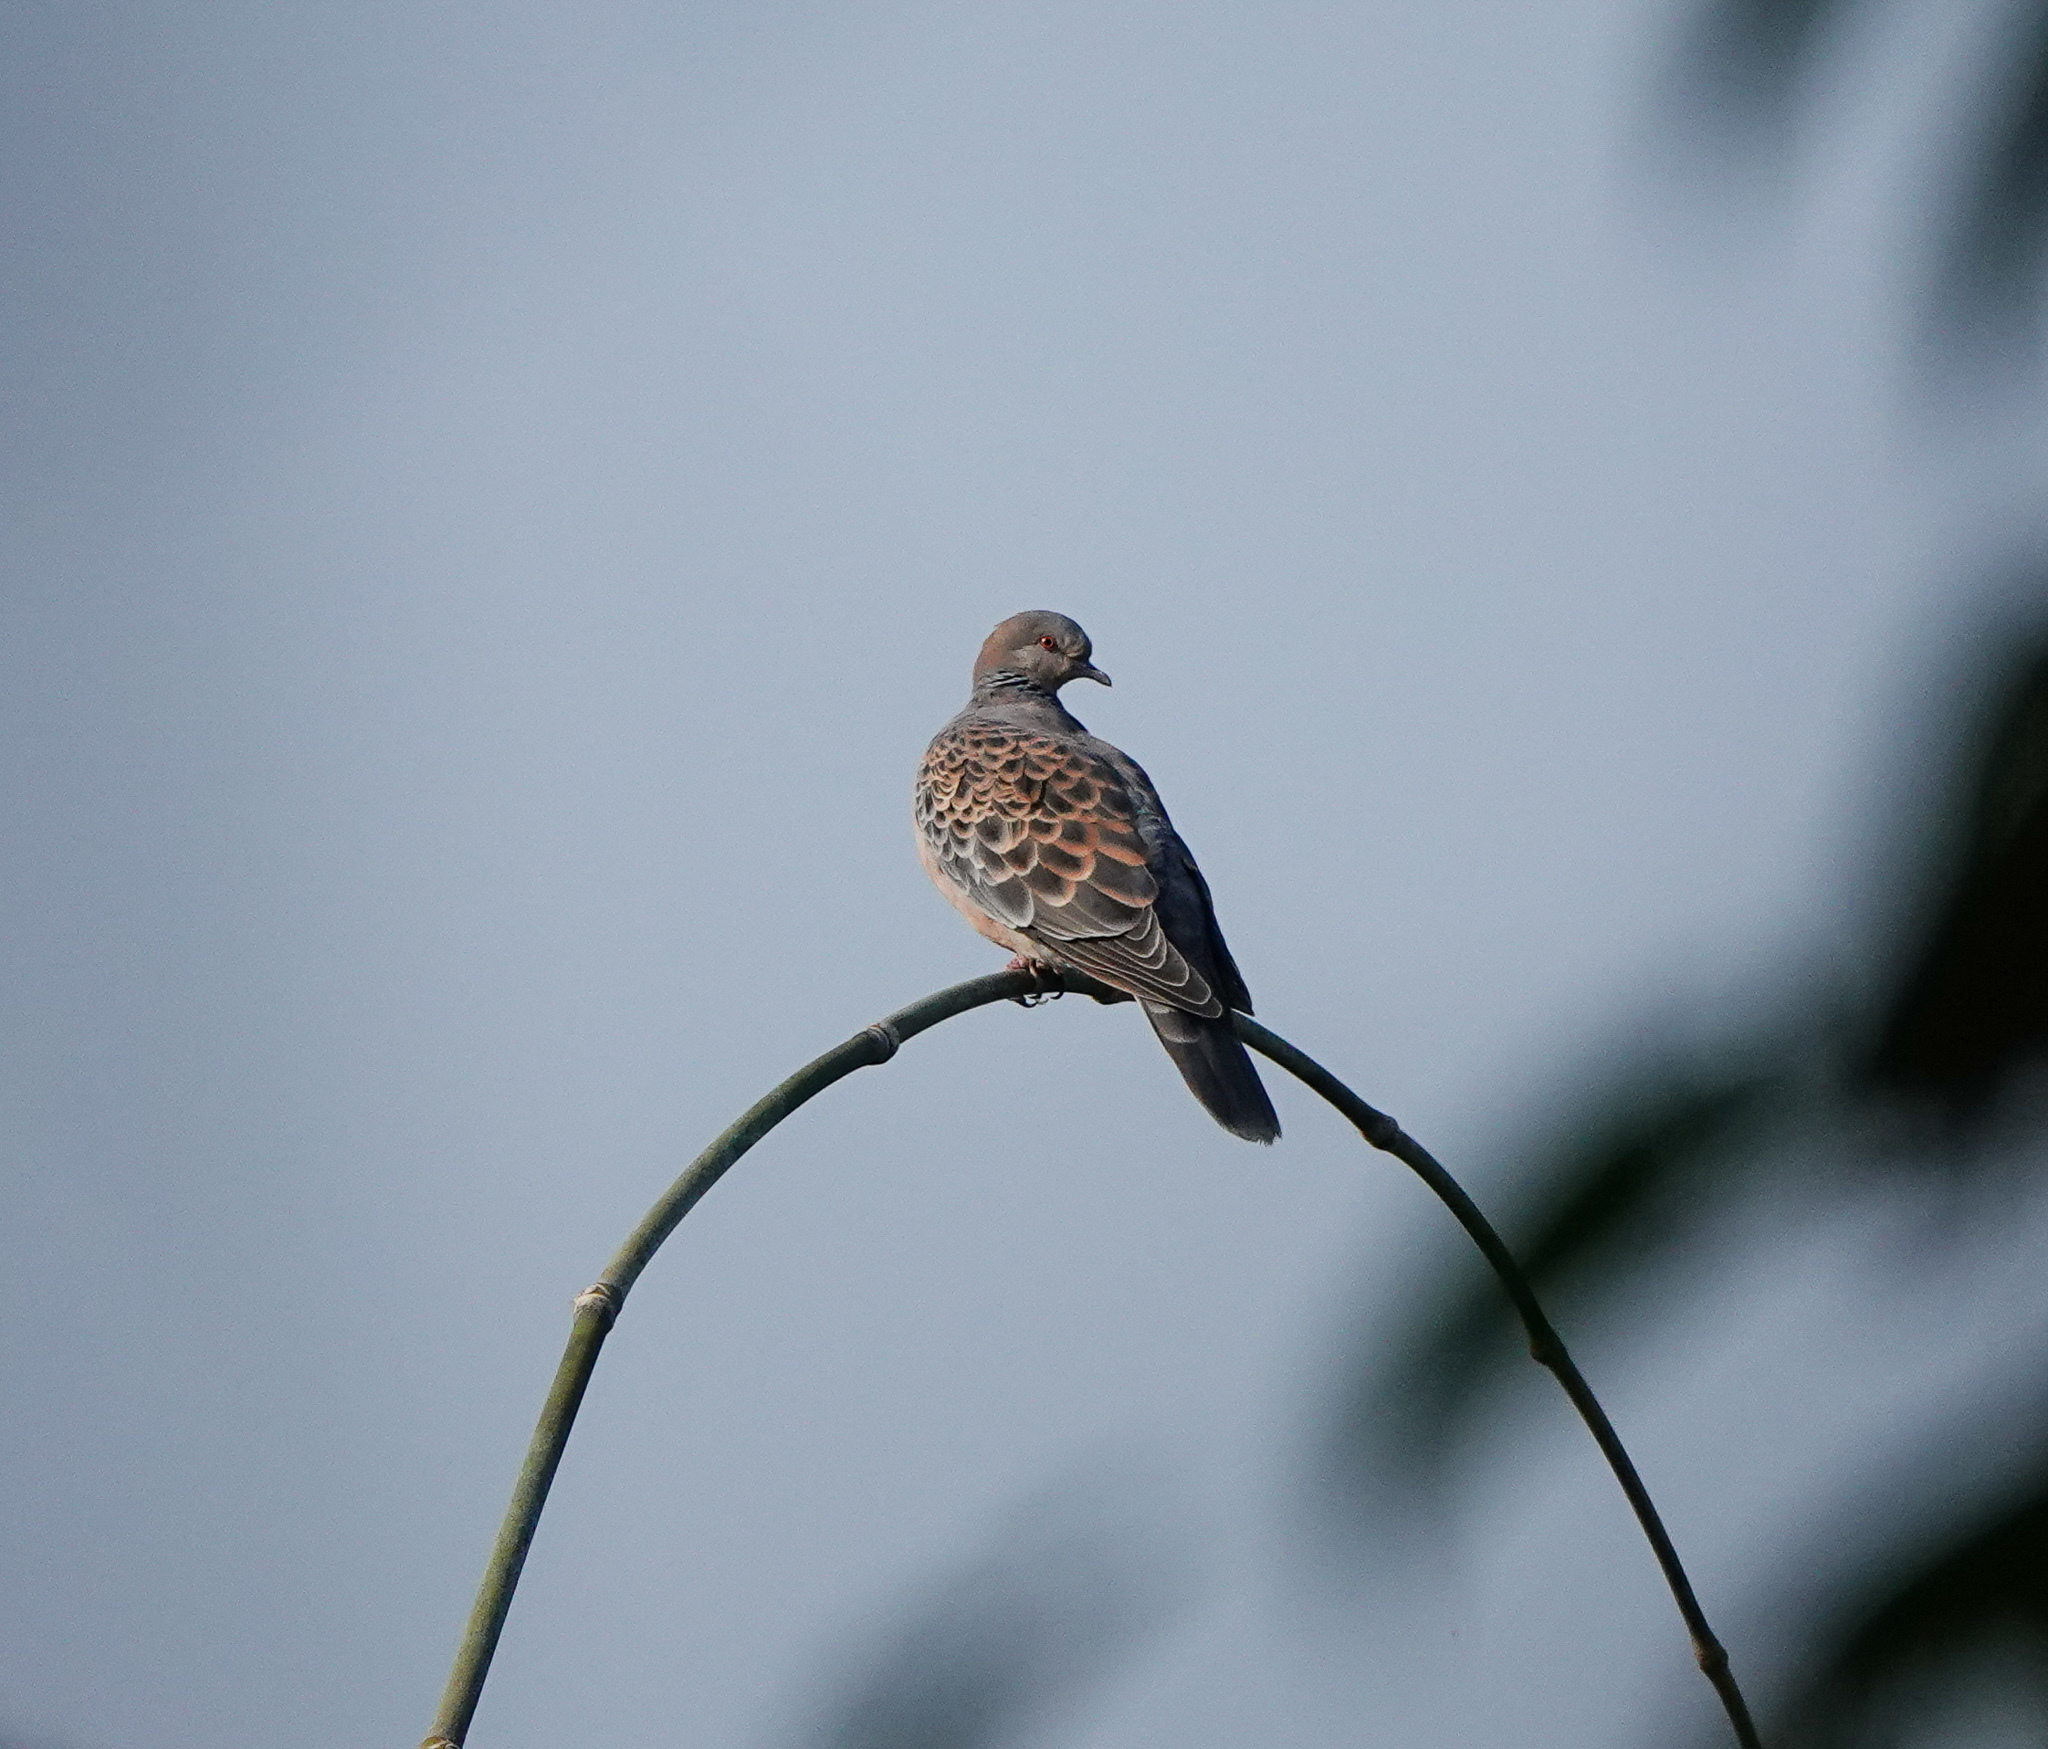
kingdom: Animalia
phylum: Chordata
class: Aves
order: Columbiformes
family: Columbidae
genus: Streptopelia
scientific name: Streptopelia orientalis
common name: Oriental turtle dove
